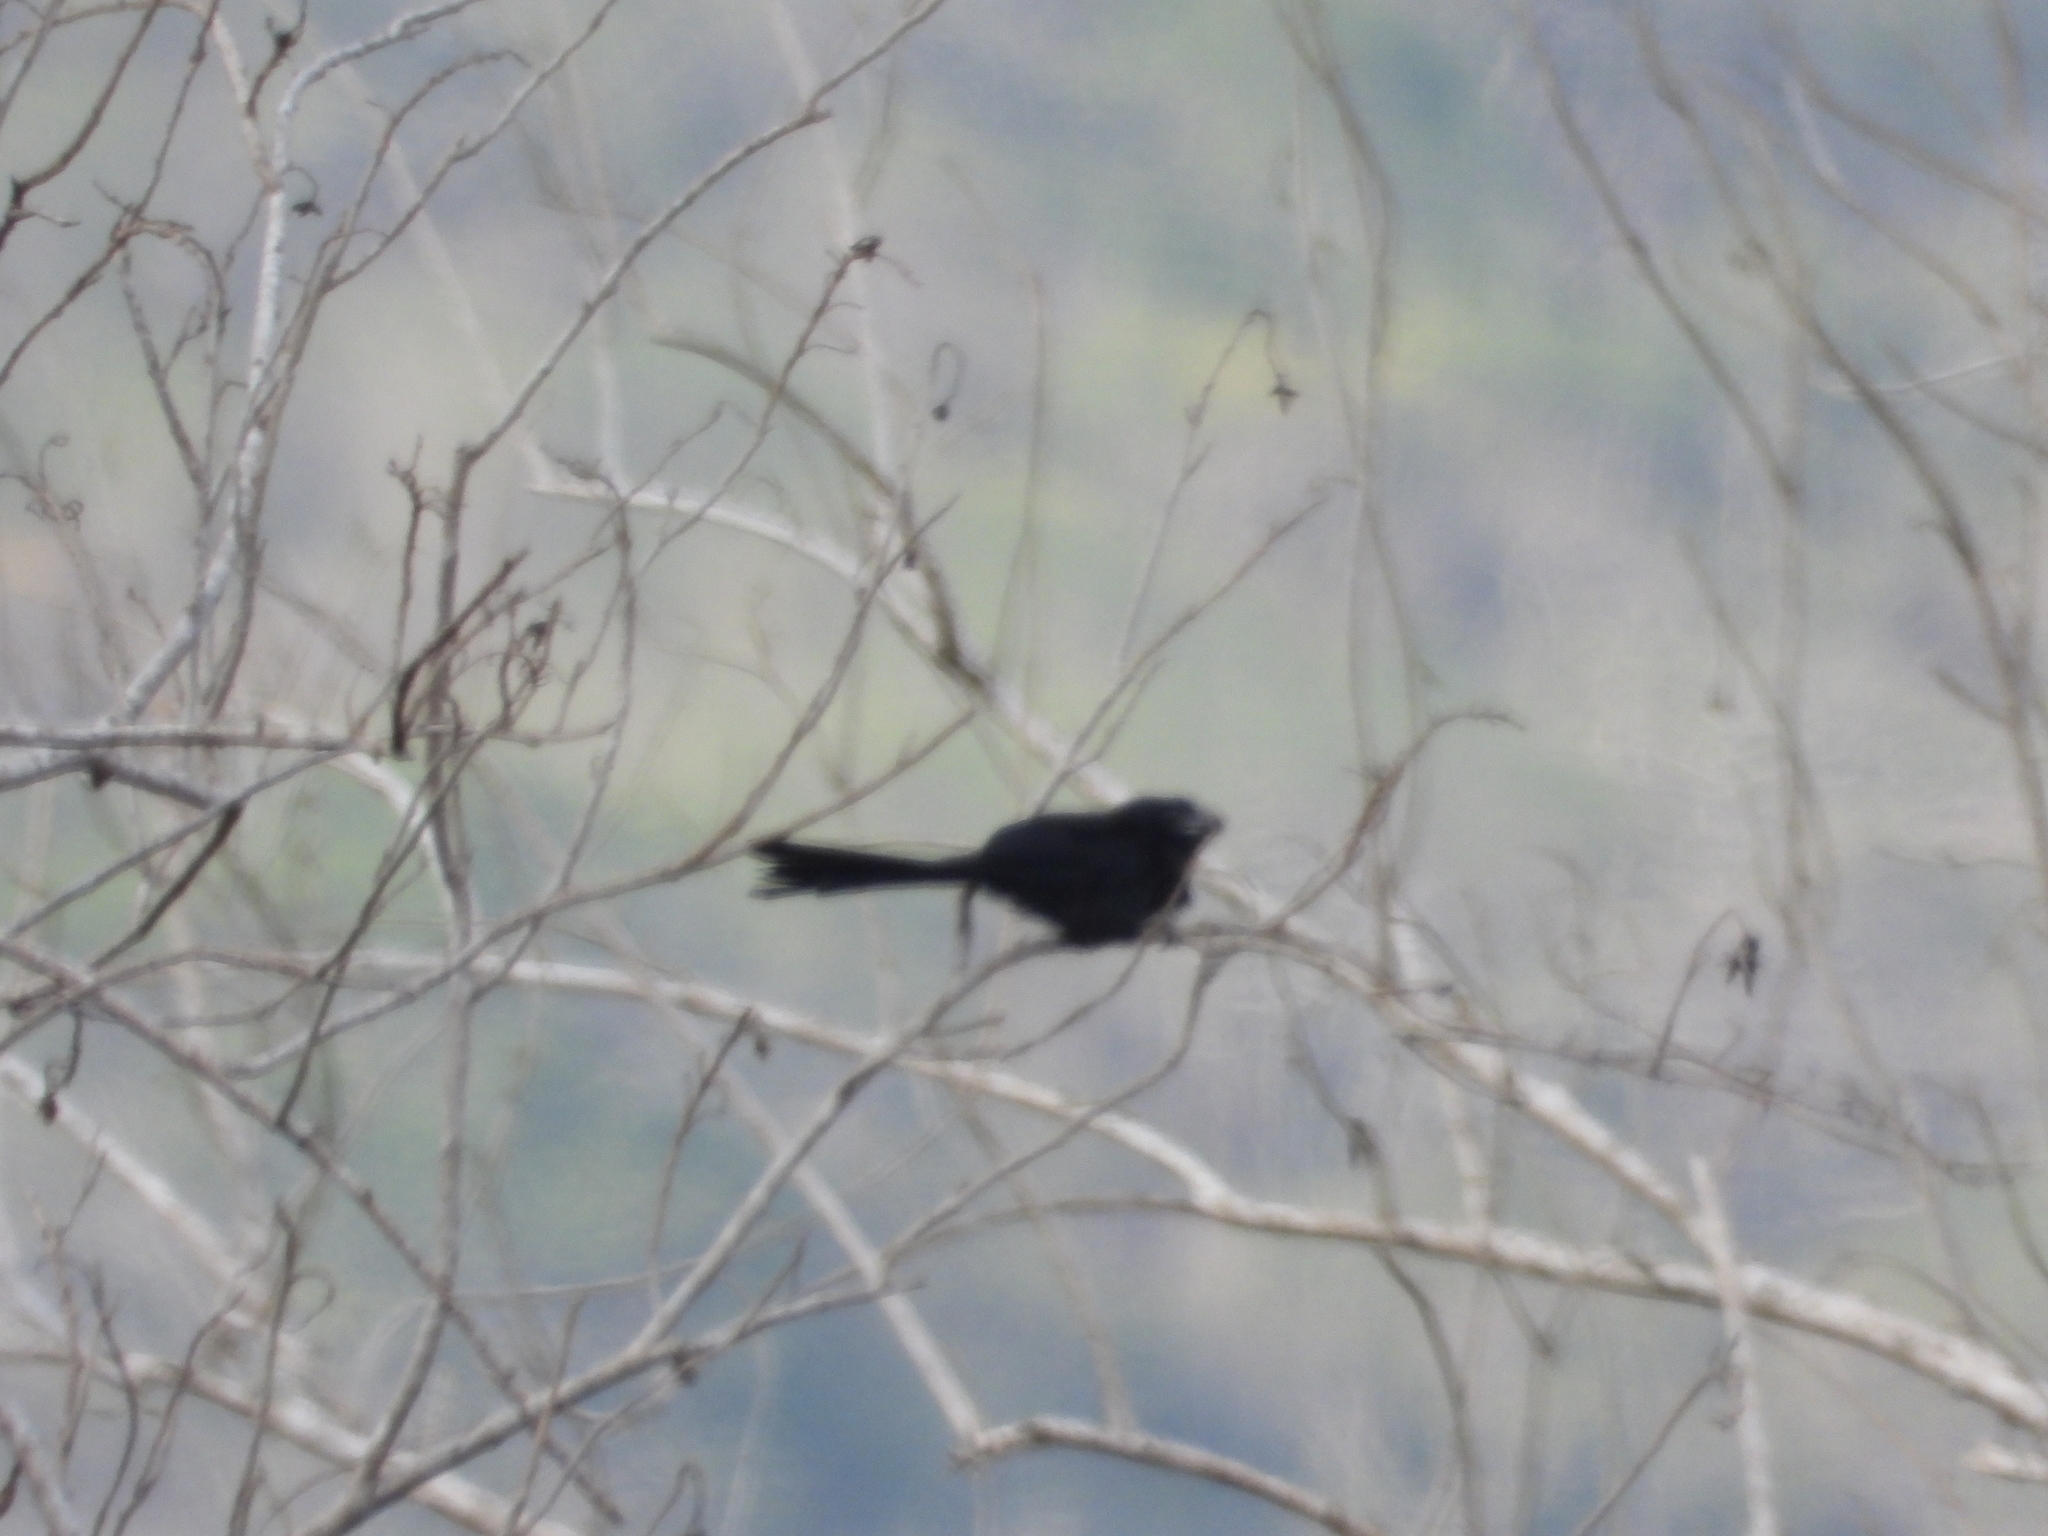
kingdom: Animalia
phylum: Chordata
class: Aves
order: Cuculiformes
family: Cuculidae
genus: Crotophaga
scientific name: Crotophaga sulcirostris
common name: Groove-billed ani
